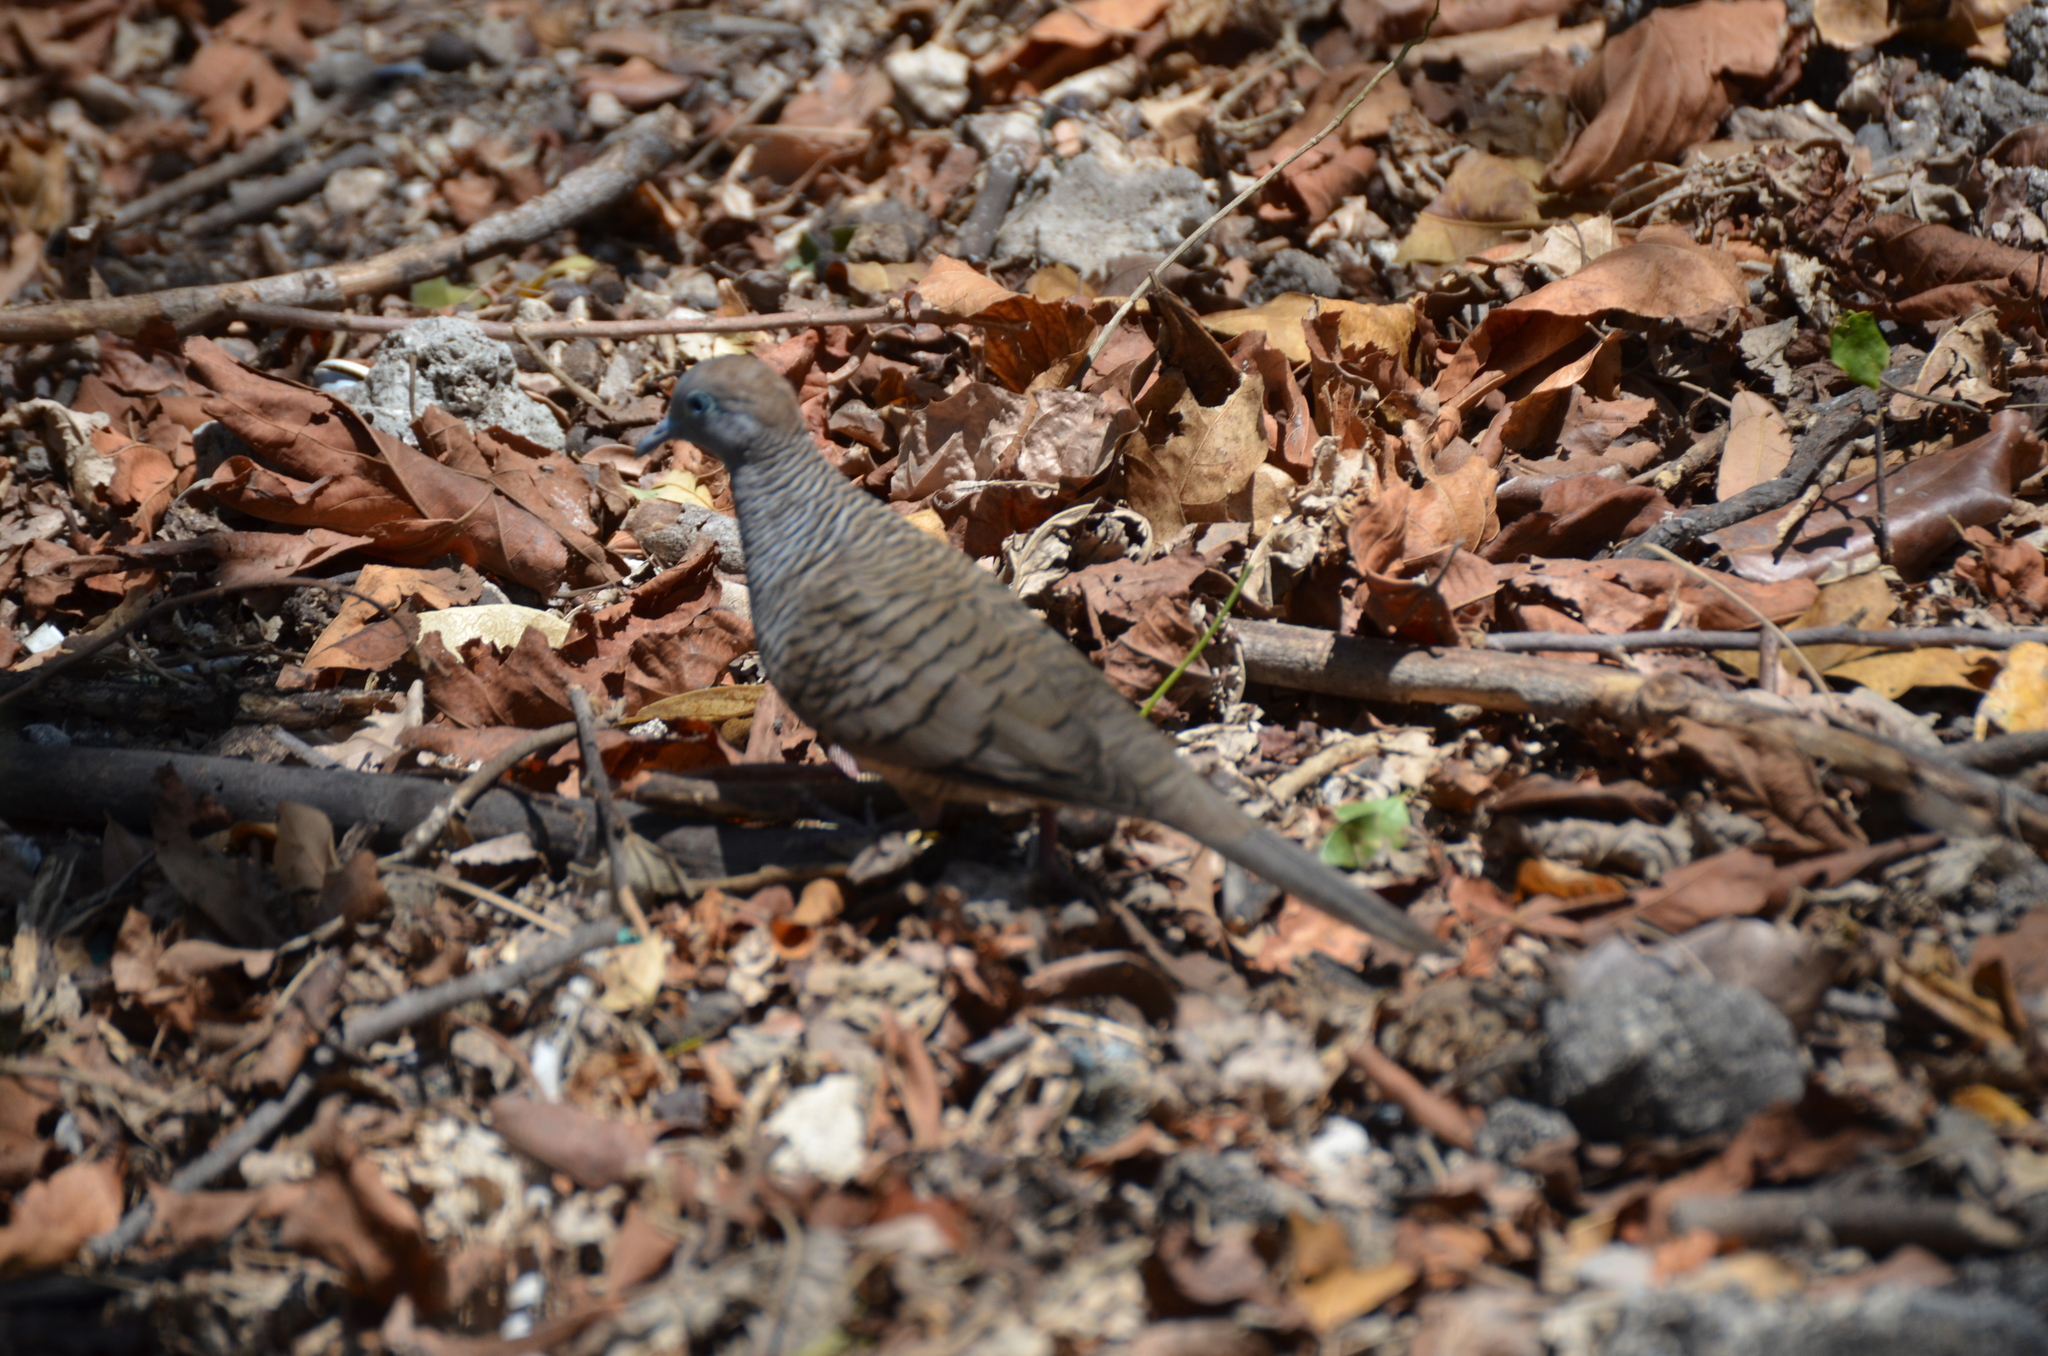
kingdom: Animalia
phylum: Chordata
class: Aves
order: Columbiformes
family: Columbidae
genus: Geopelia
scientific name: Geopelia striata
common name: Zebra dove
